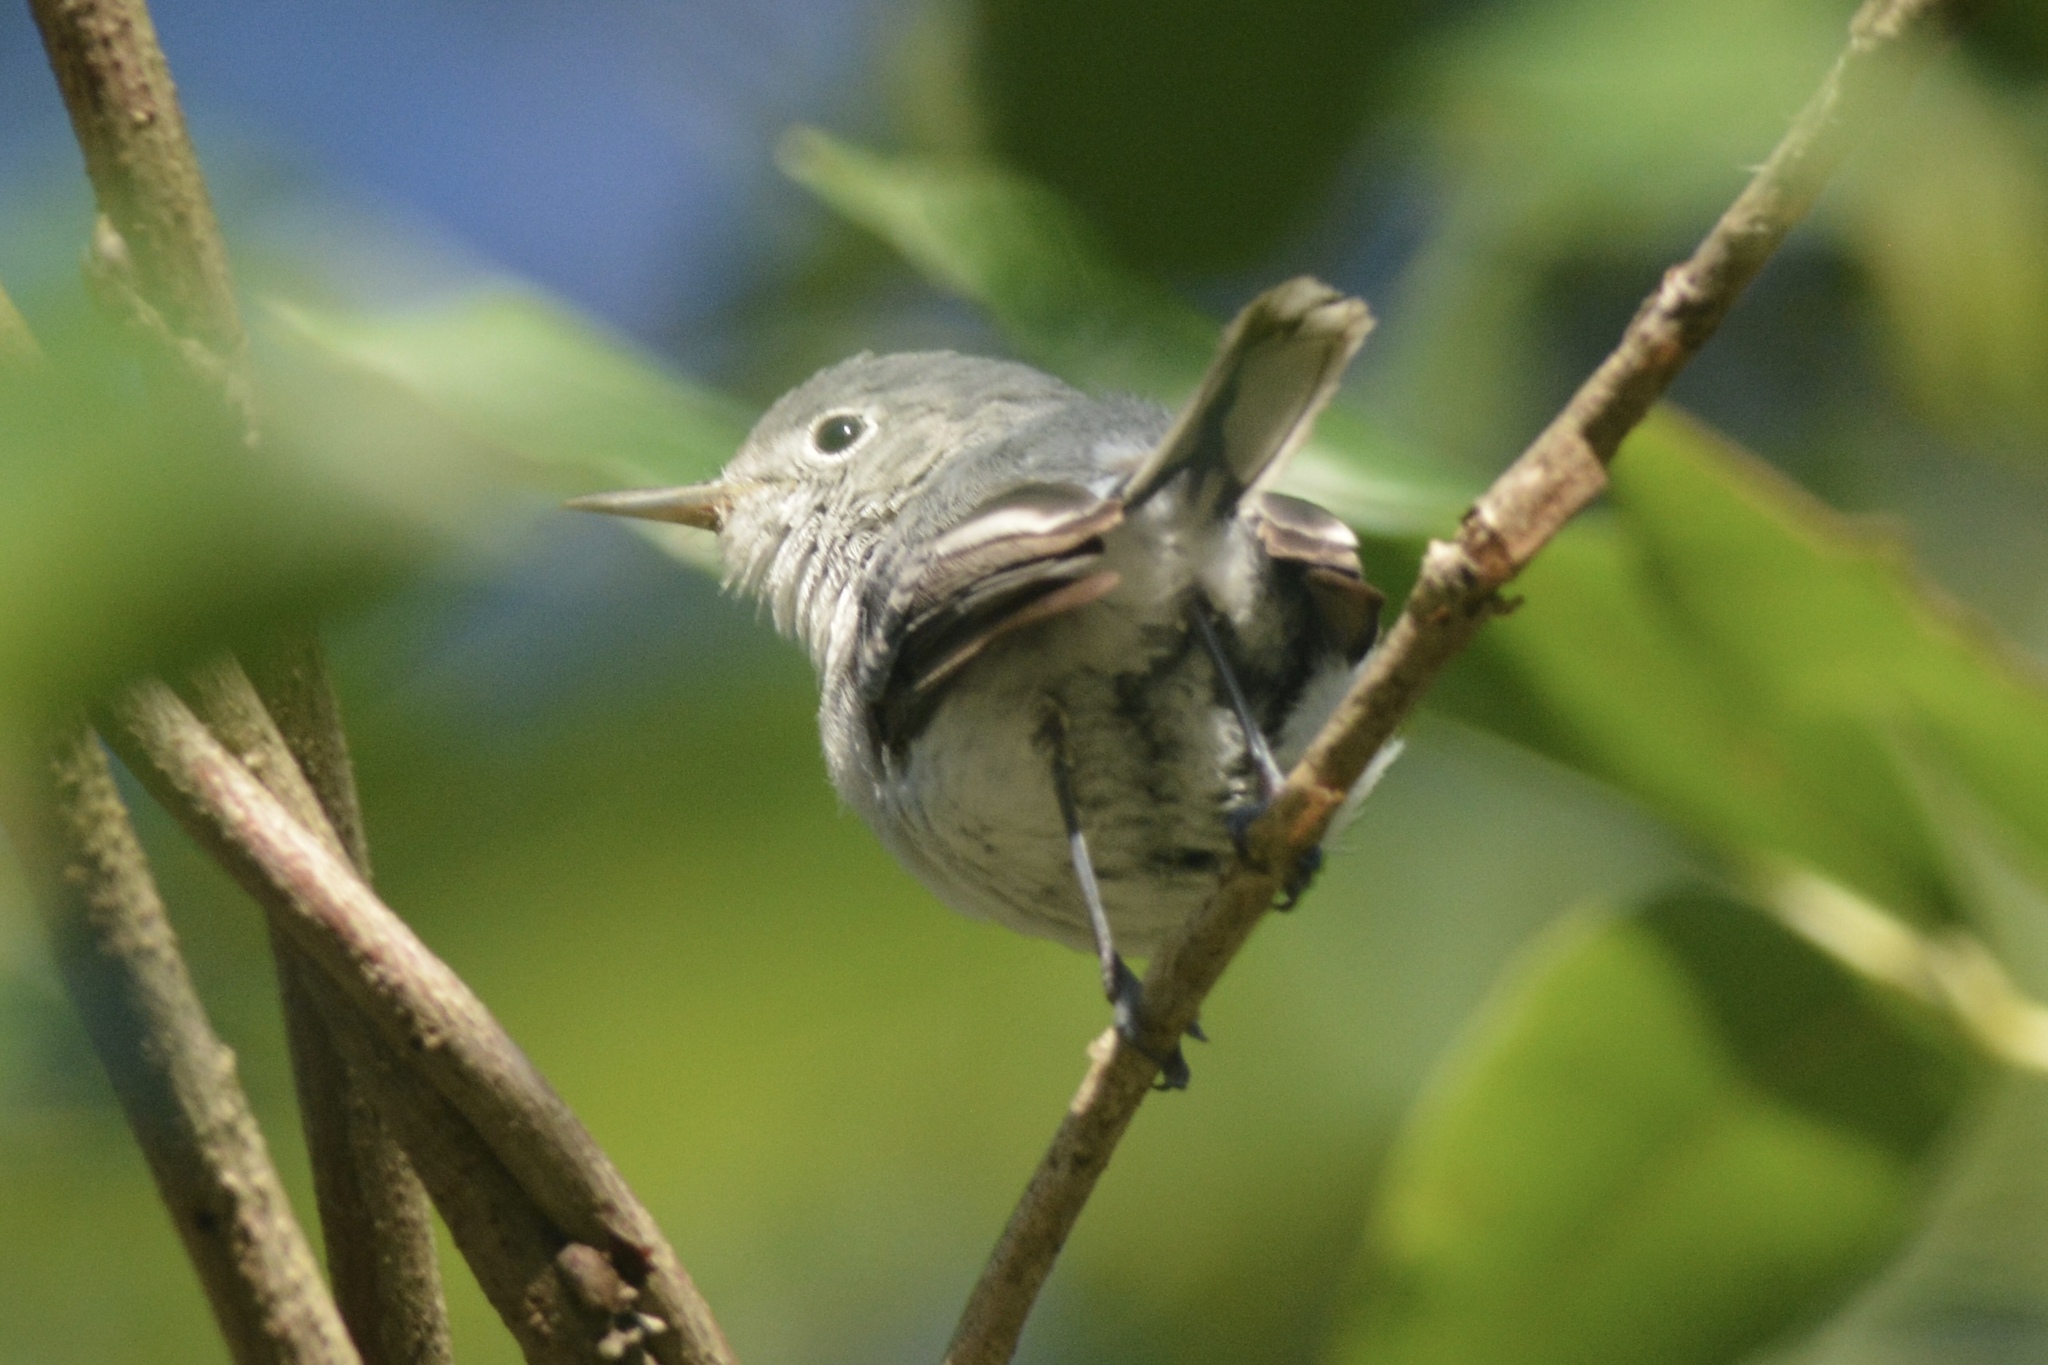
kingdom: Animalia
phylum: Chordata
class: Aves
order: Passeriformes
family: Polioptilidae
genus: Polioptila
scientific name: Polioptila caerulea
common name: Blue-gray gnatcatcher
